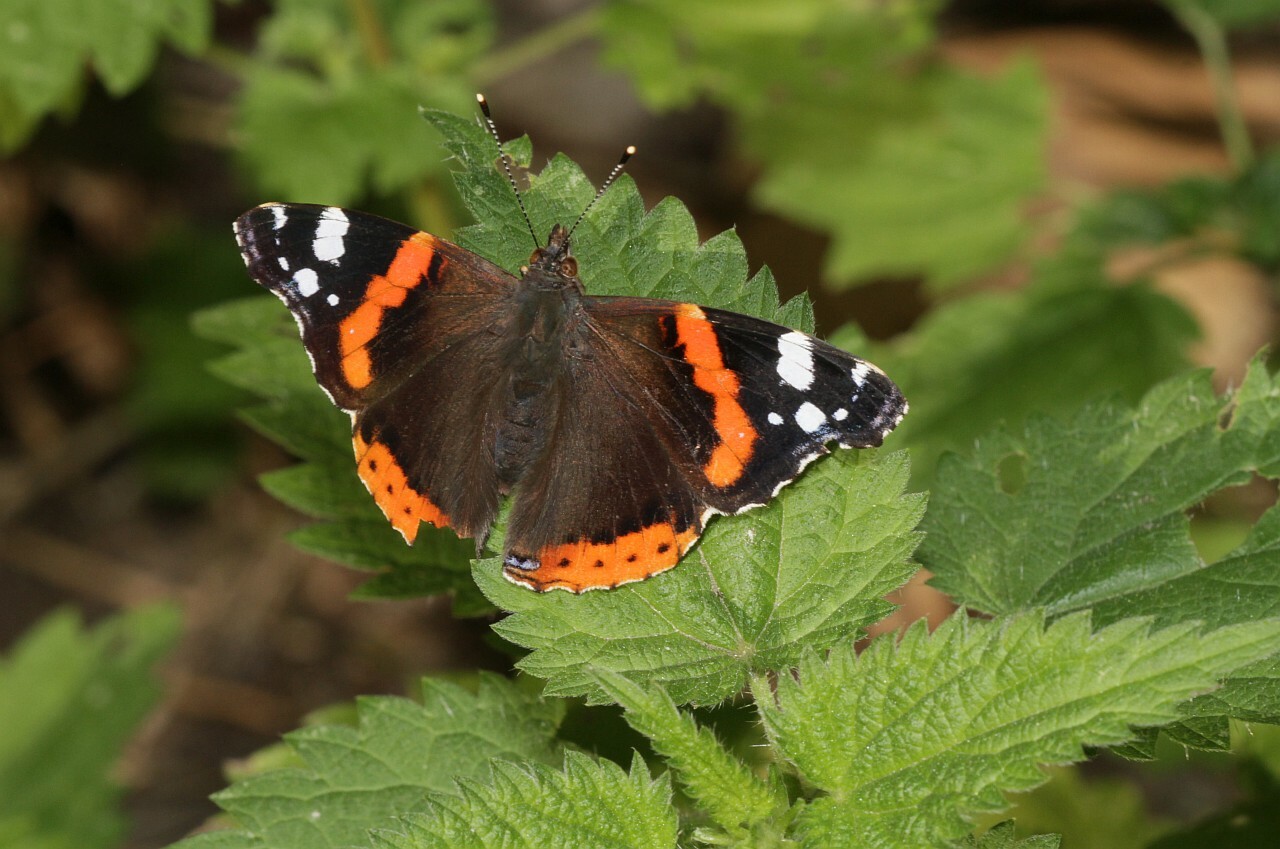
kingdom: Animalia
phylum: Arthropoda
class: Insecta
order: Lepidoptera
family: Nymphalidae
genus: Vanessa
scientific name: Vanessa atalanta
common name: Red admiral
